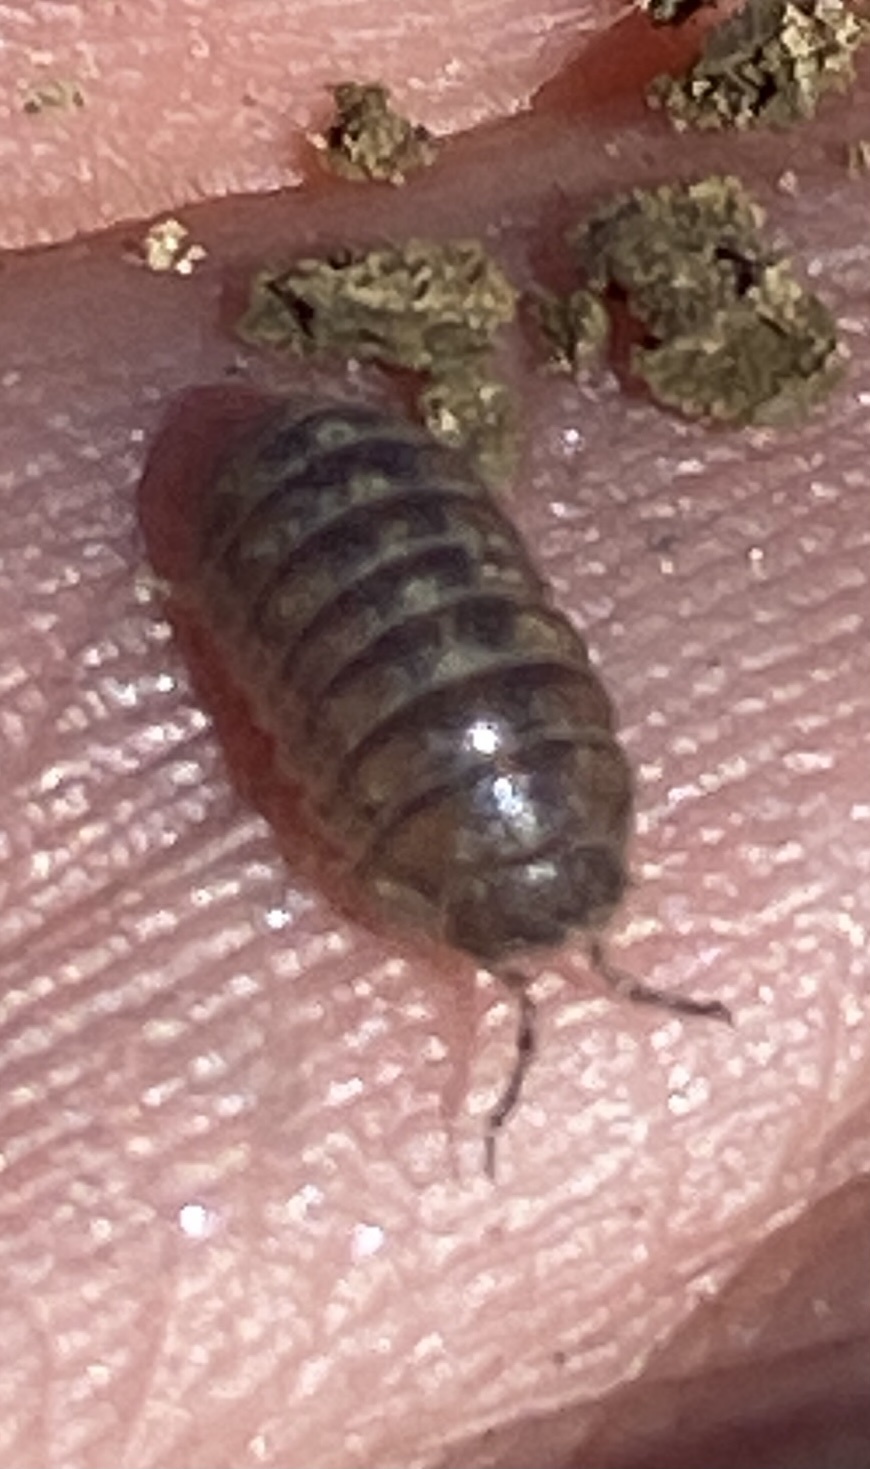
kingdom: Animalia
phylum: Arthropoda
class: Malacostraca
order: Isopoda
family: Armadillidiidae
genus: Armadillidium
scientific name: Armadillidium vulgare
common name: Common pill woodlouse
